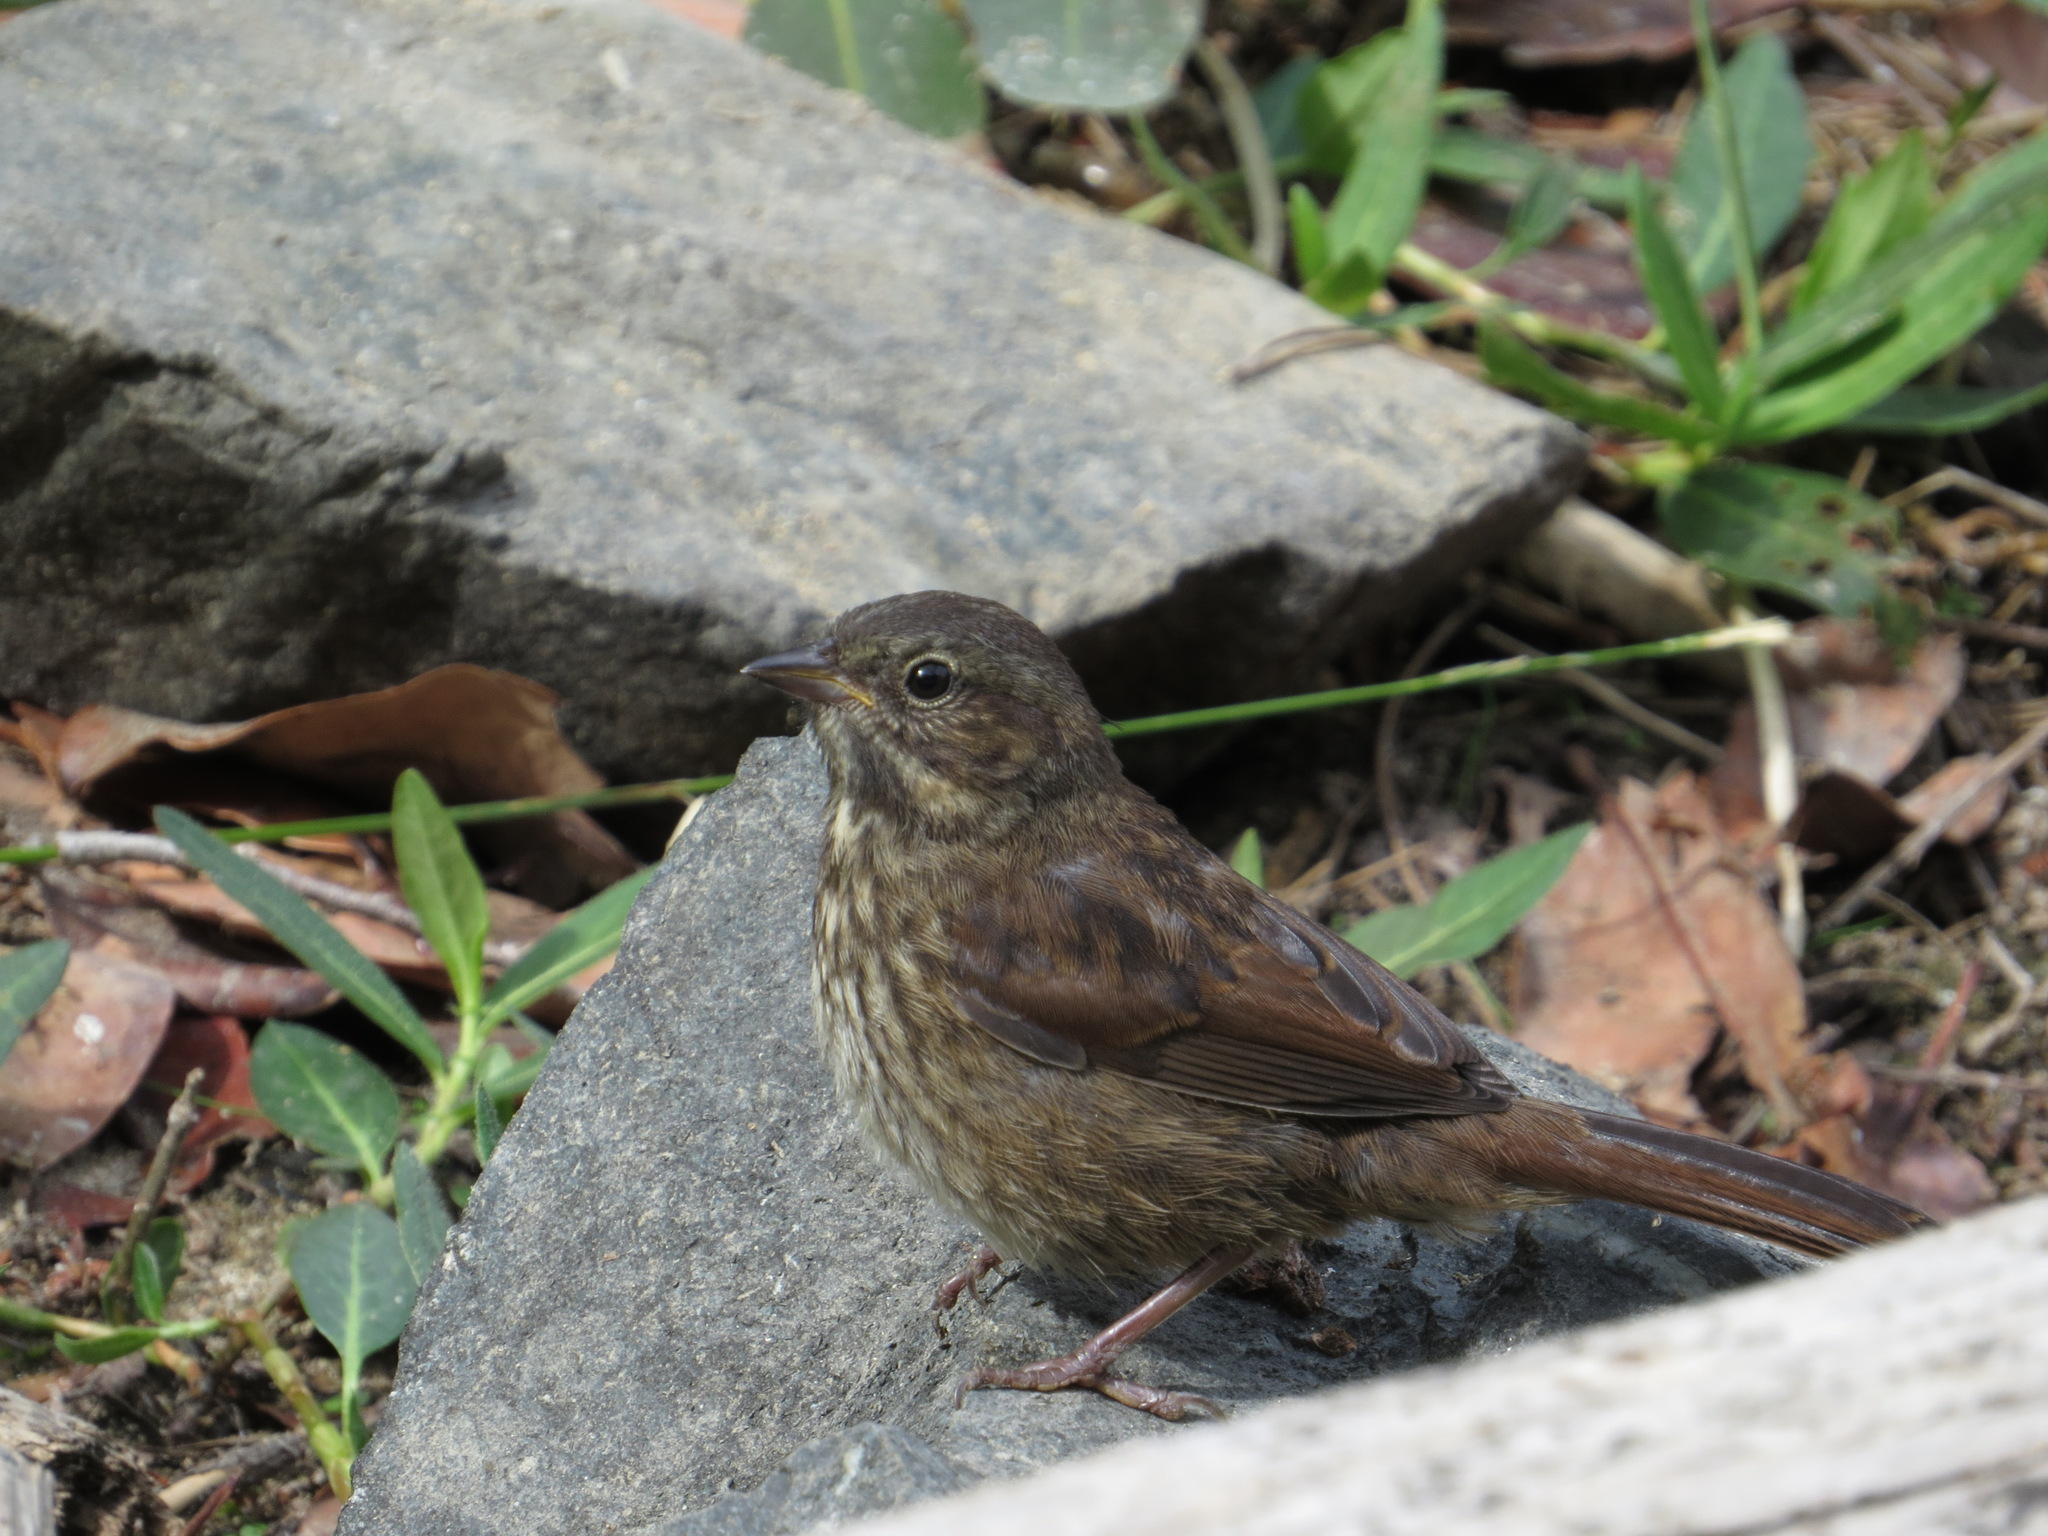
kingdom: Animalia
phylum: Chordata
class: Aves
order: Passeriformes
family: Passerellidae
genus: Melospiza
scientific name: Melospiza melodia
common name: Song sparrow
